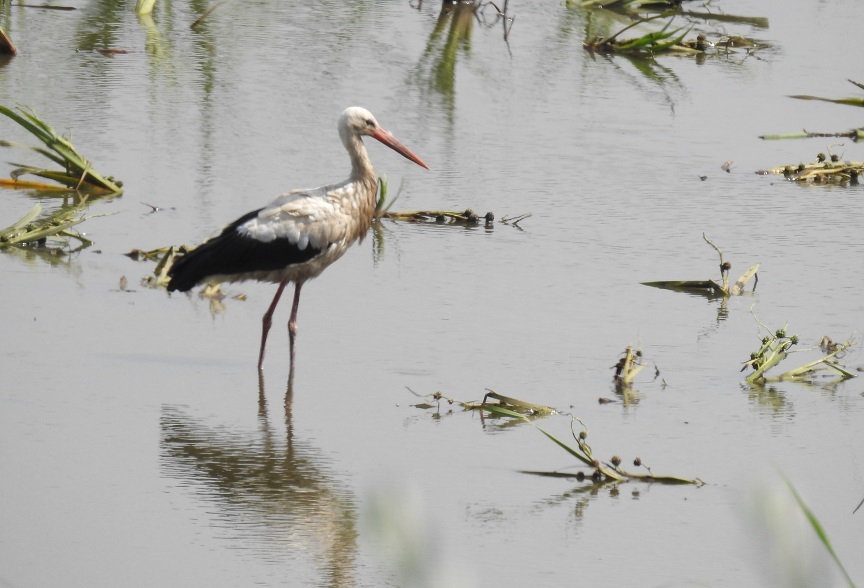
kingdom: Animalia
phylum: Chordata
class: Aves
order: Ciconiiformes
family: Ciconiidae
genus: Ciconia
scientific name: Ciconia ciconia
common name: White stork
